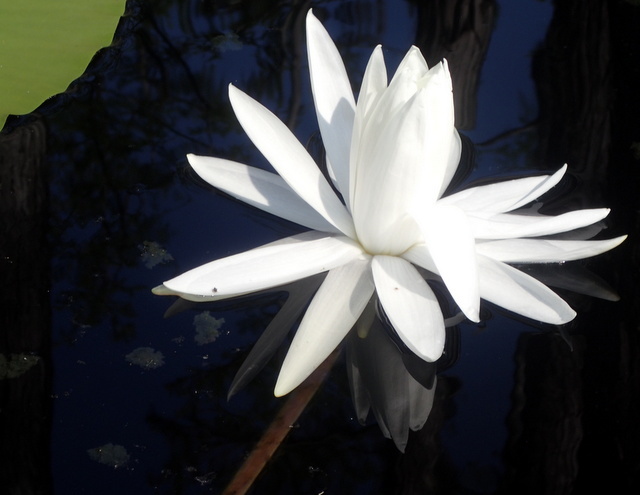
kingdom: Plantae
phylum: Tracheophyta
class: Magnoliopsida
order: Nymphaeales
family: Nymphaeaceae
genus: Nymphaea
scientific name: Nymphaea odorata
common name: Fragrant water-lily
